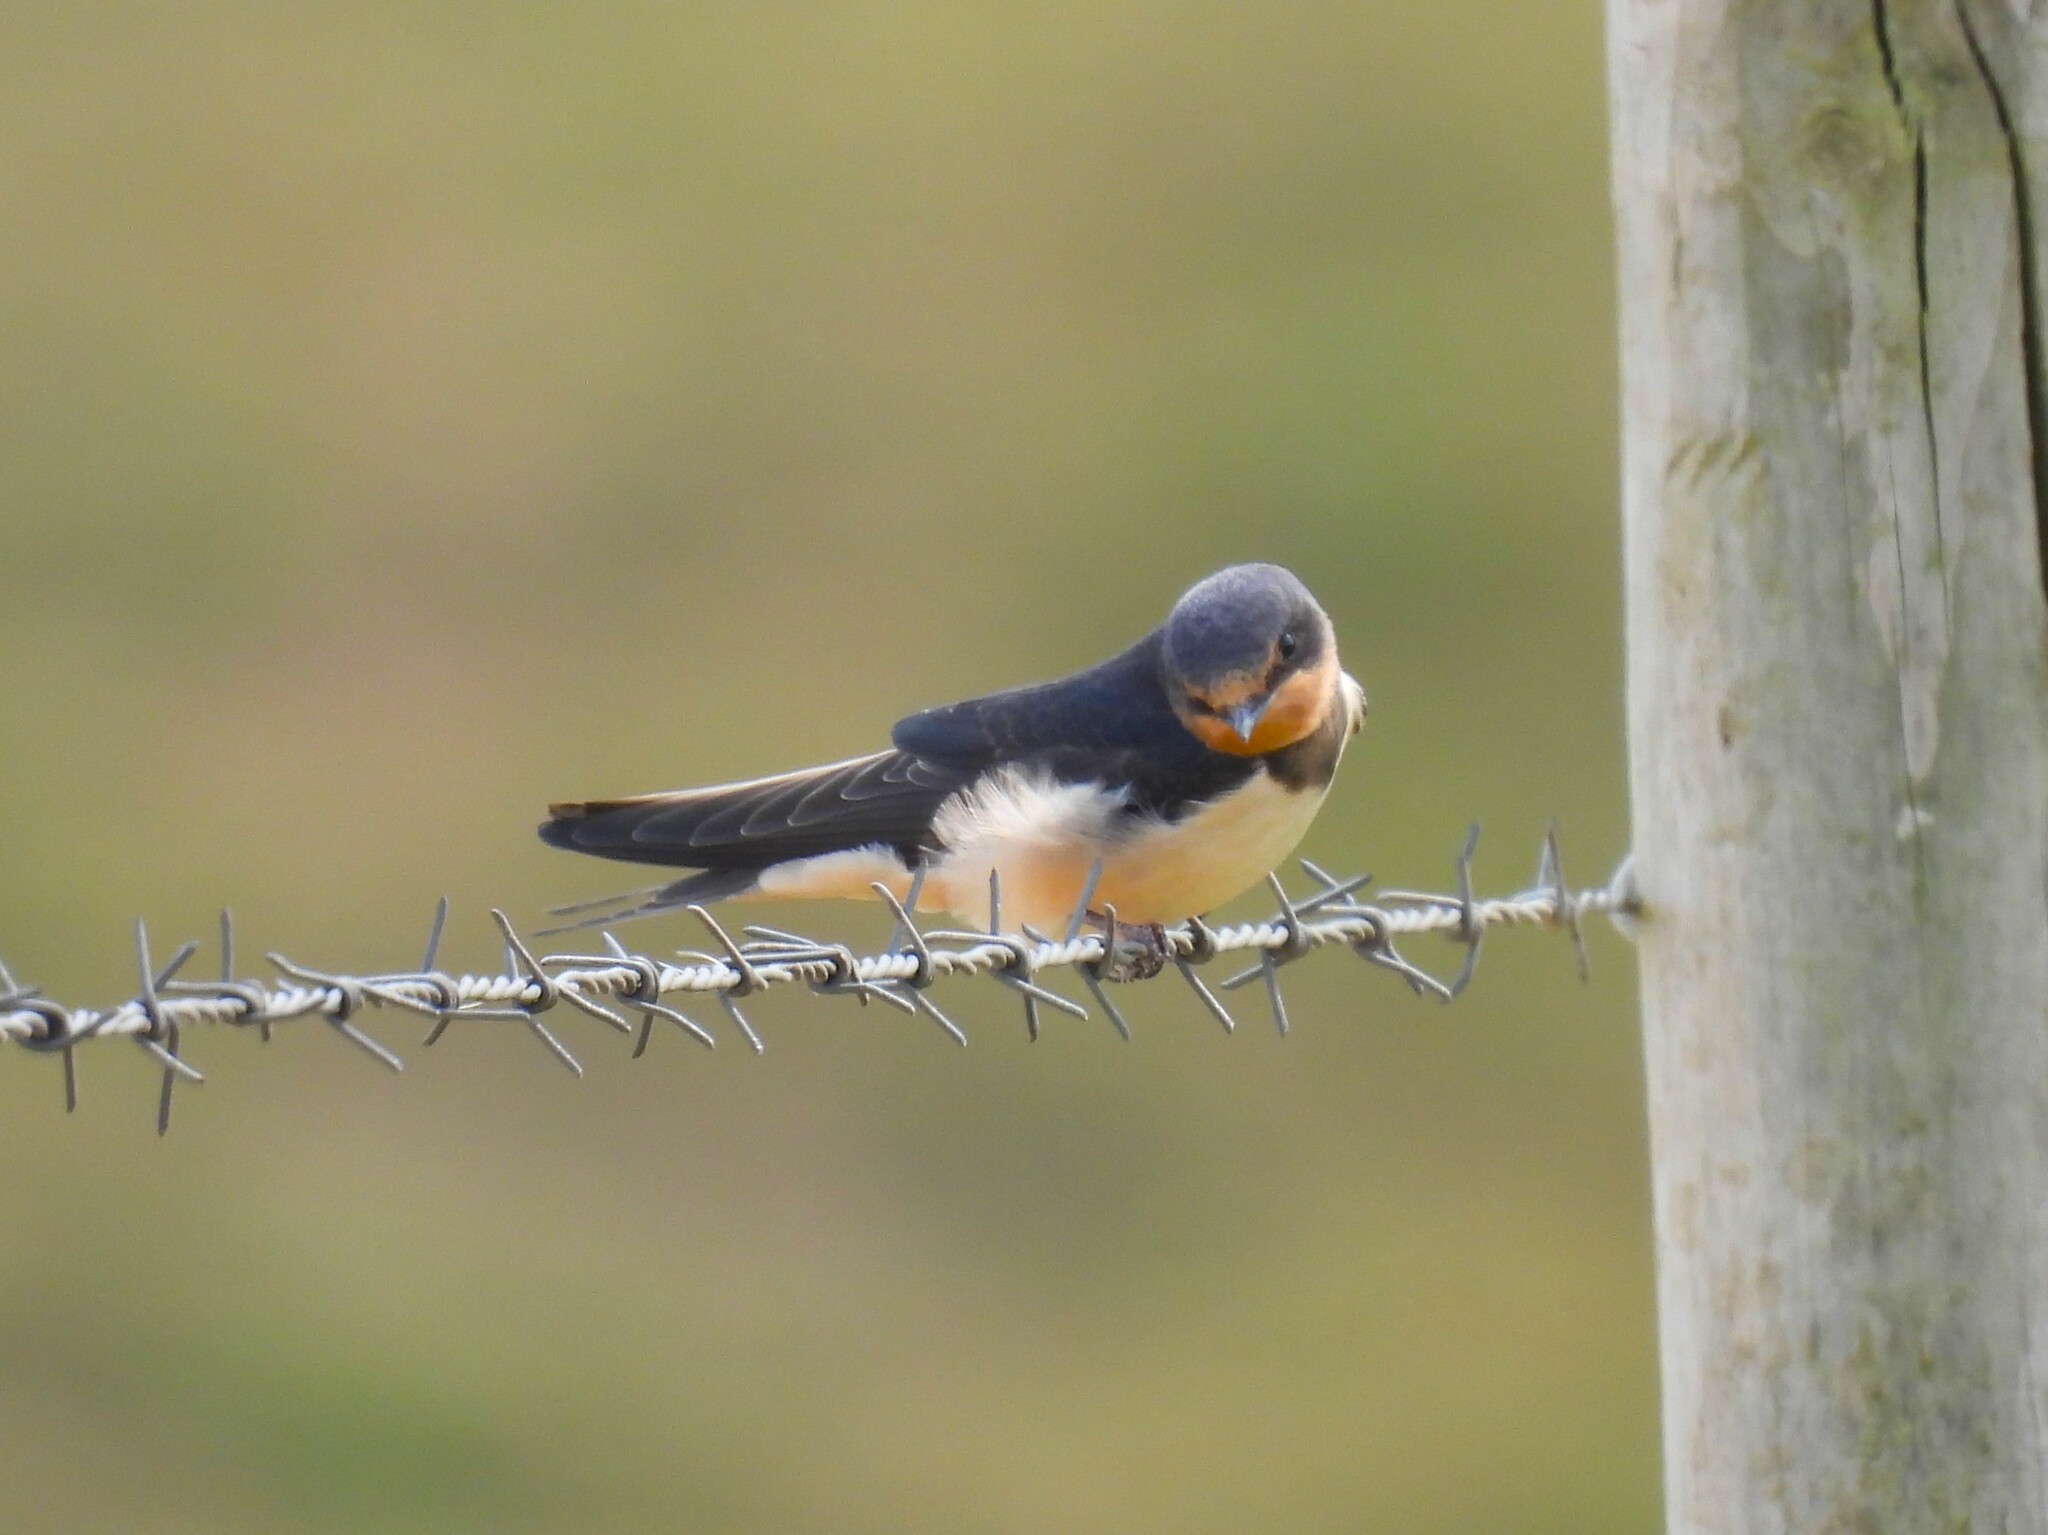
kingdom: Animalia
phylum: Chordata
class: Aves
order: Passeriformes
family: Hirundinidae
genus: Hirundo
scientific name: Hirundo rustica
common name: Barn swallow
